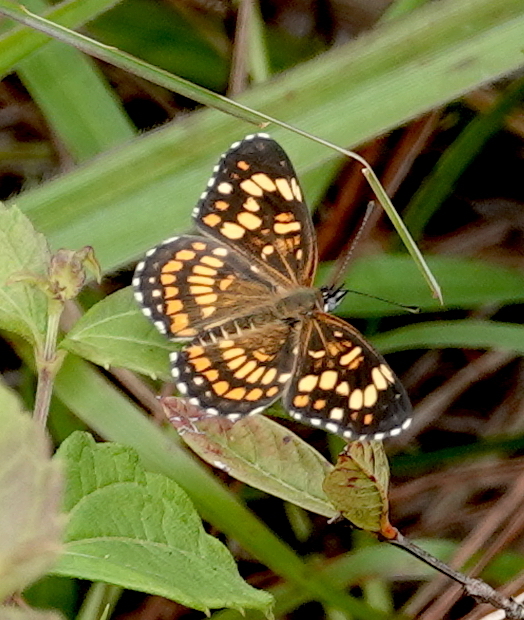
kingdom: Animalia
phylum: Arthropoda
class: Insecta
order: Lepidoptera
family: Nymphalidae
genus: Thessalia
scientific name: Thessalia theona
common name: Nymphalid moth
